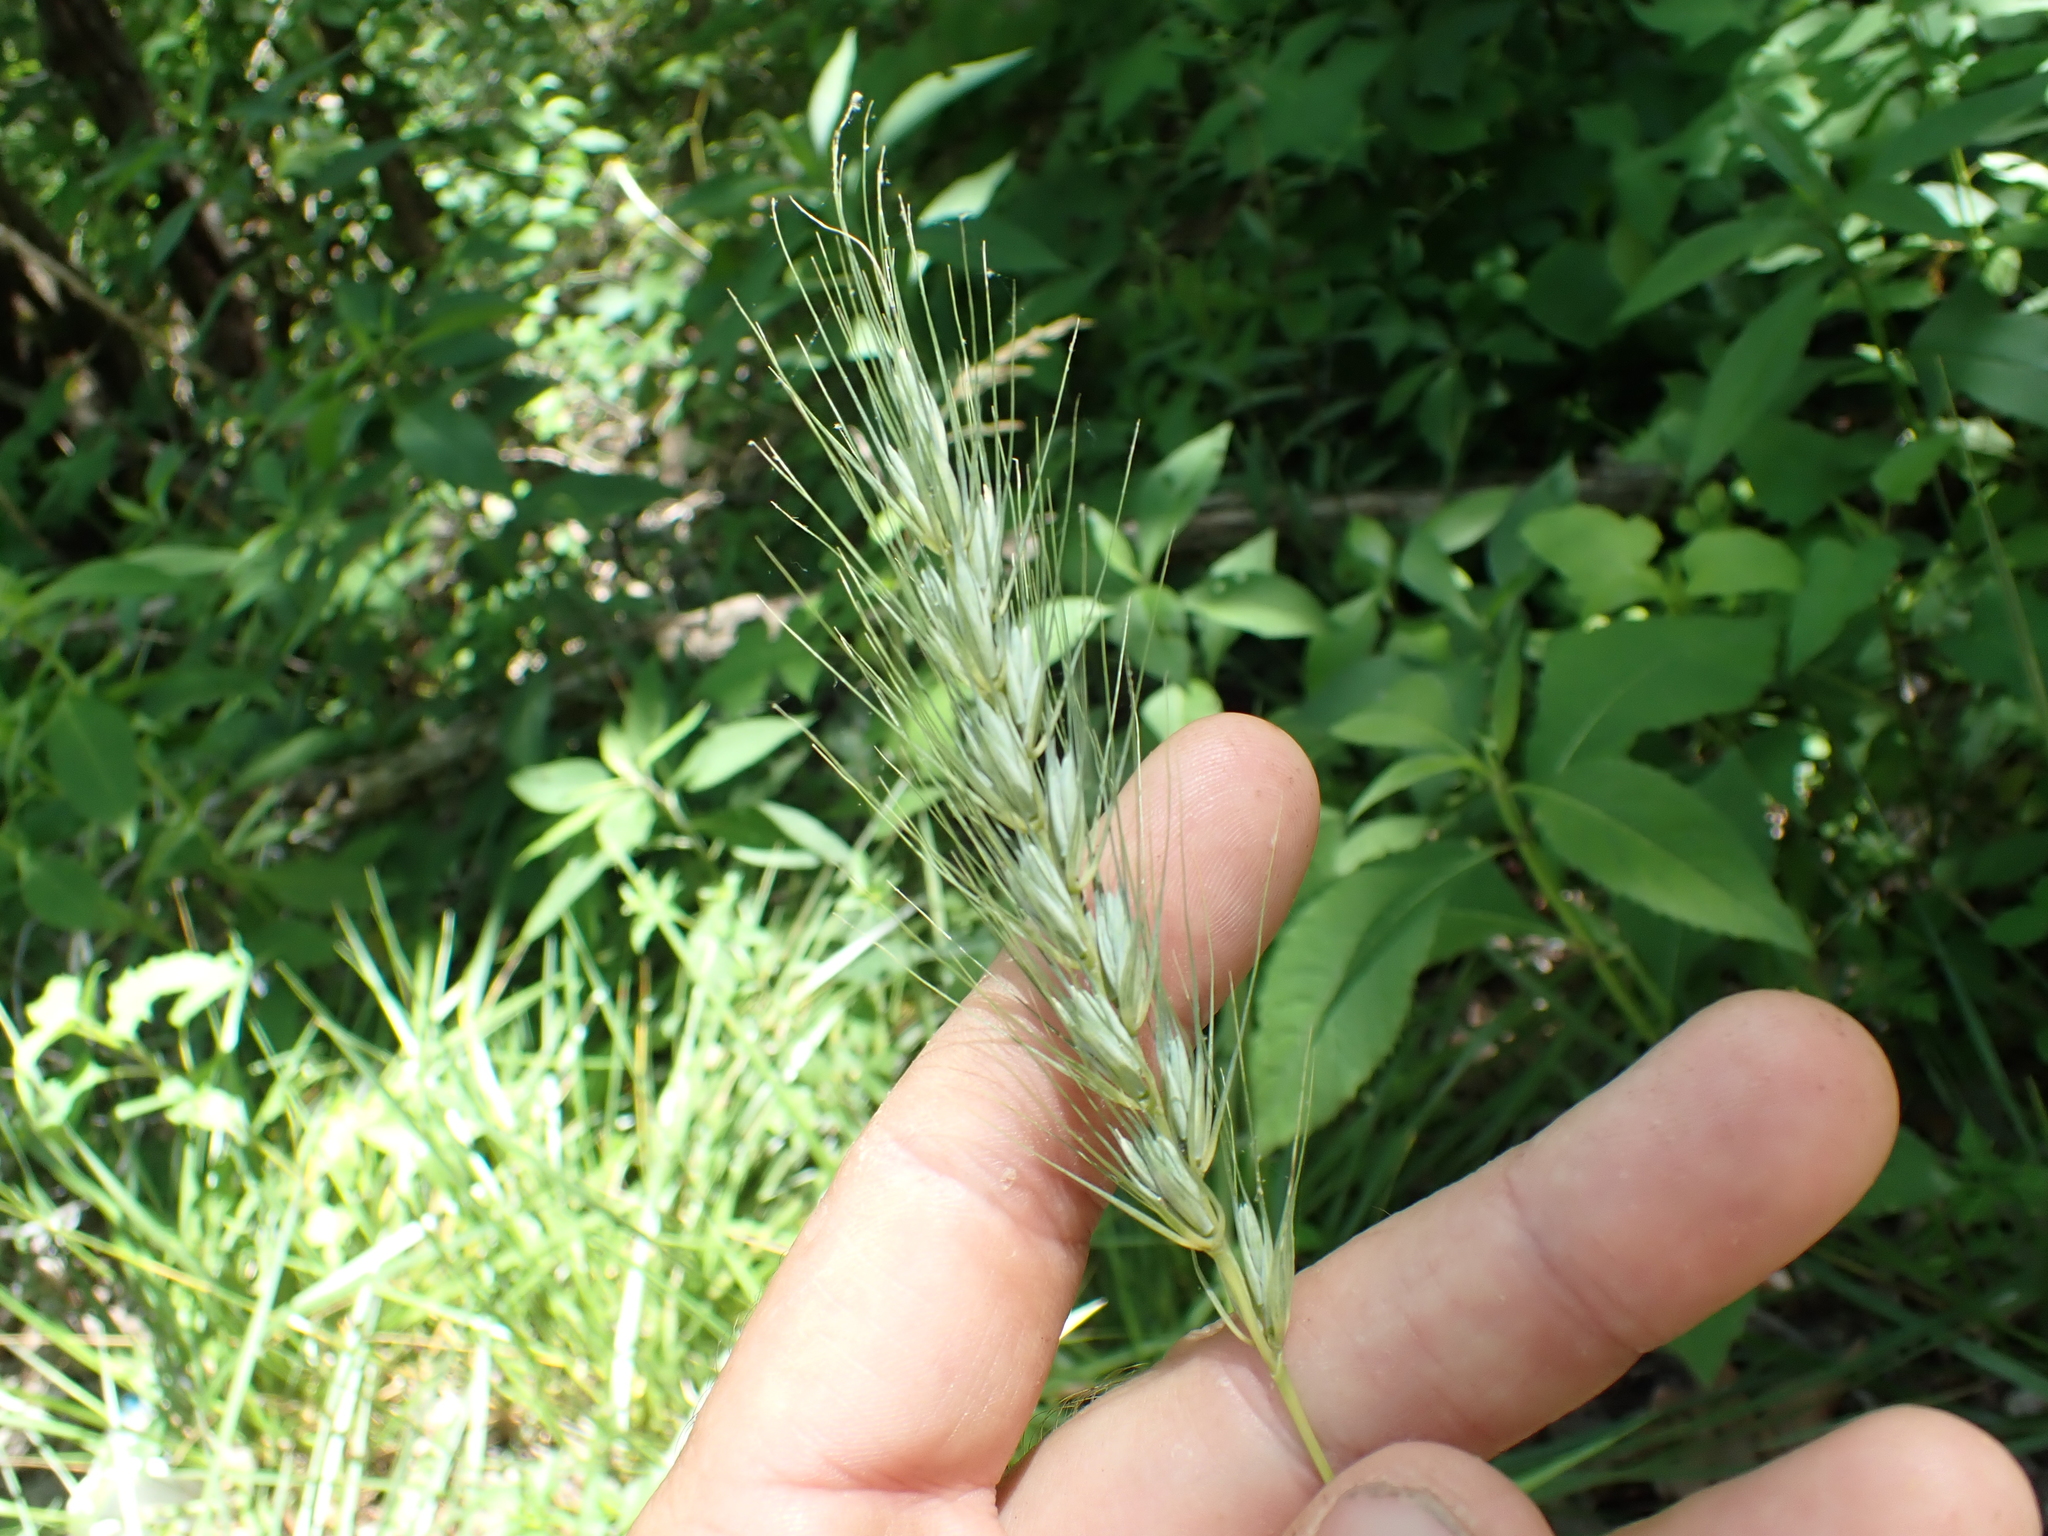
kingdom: Plantae
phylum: Tracheophyta
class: Liliopsida
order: Poales
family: Poaceae
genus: Elymus
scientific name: Elymus macgregorii
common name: Early wild rye
